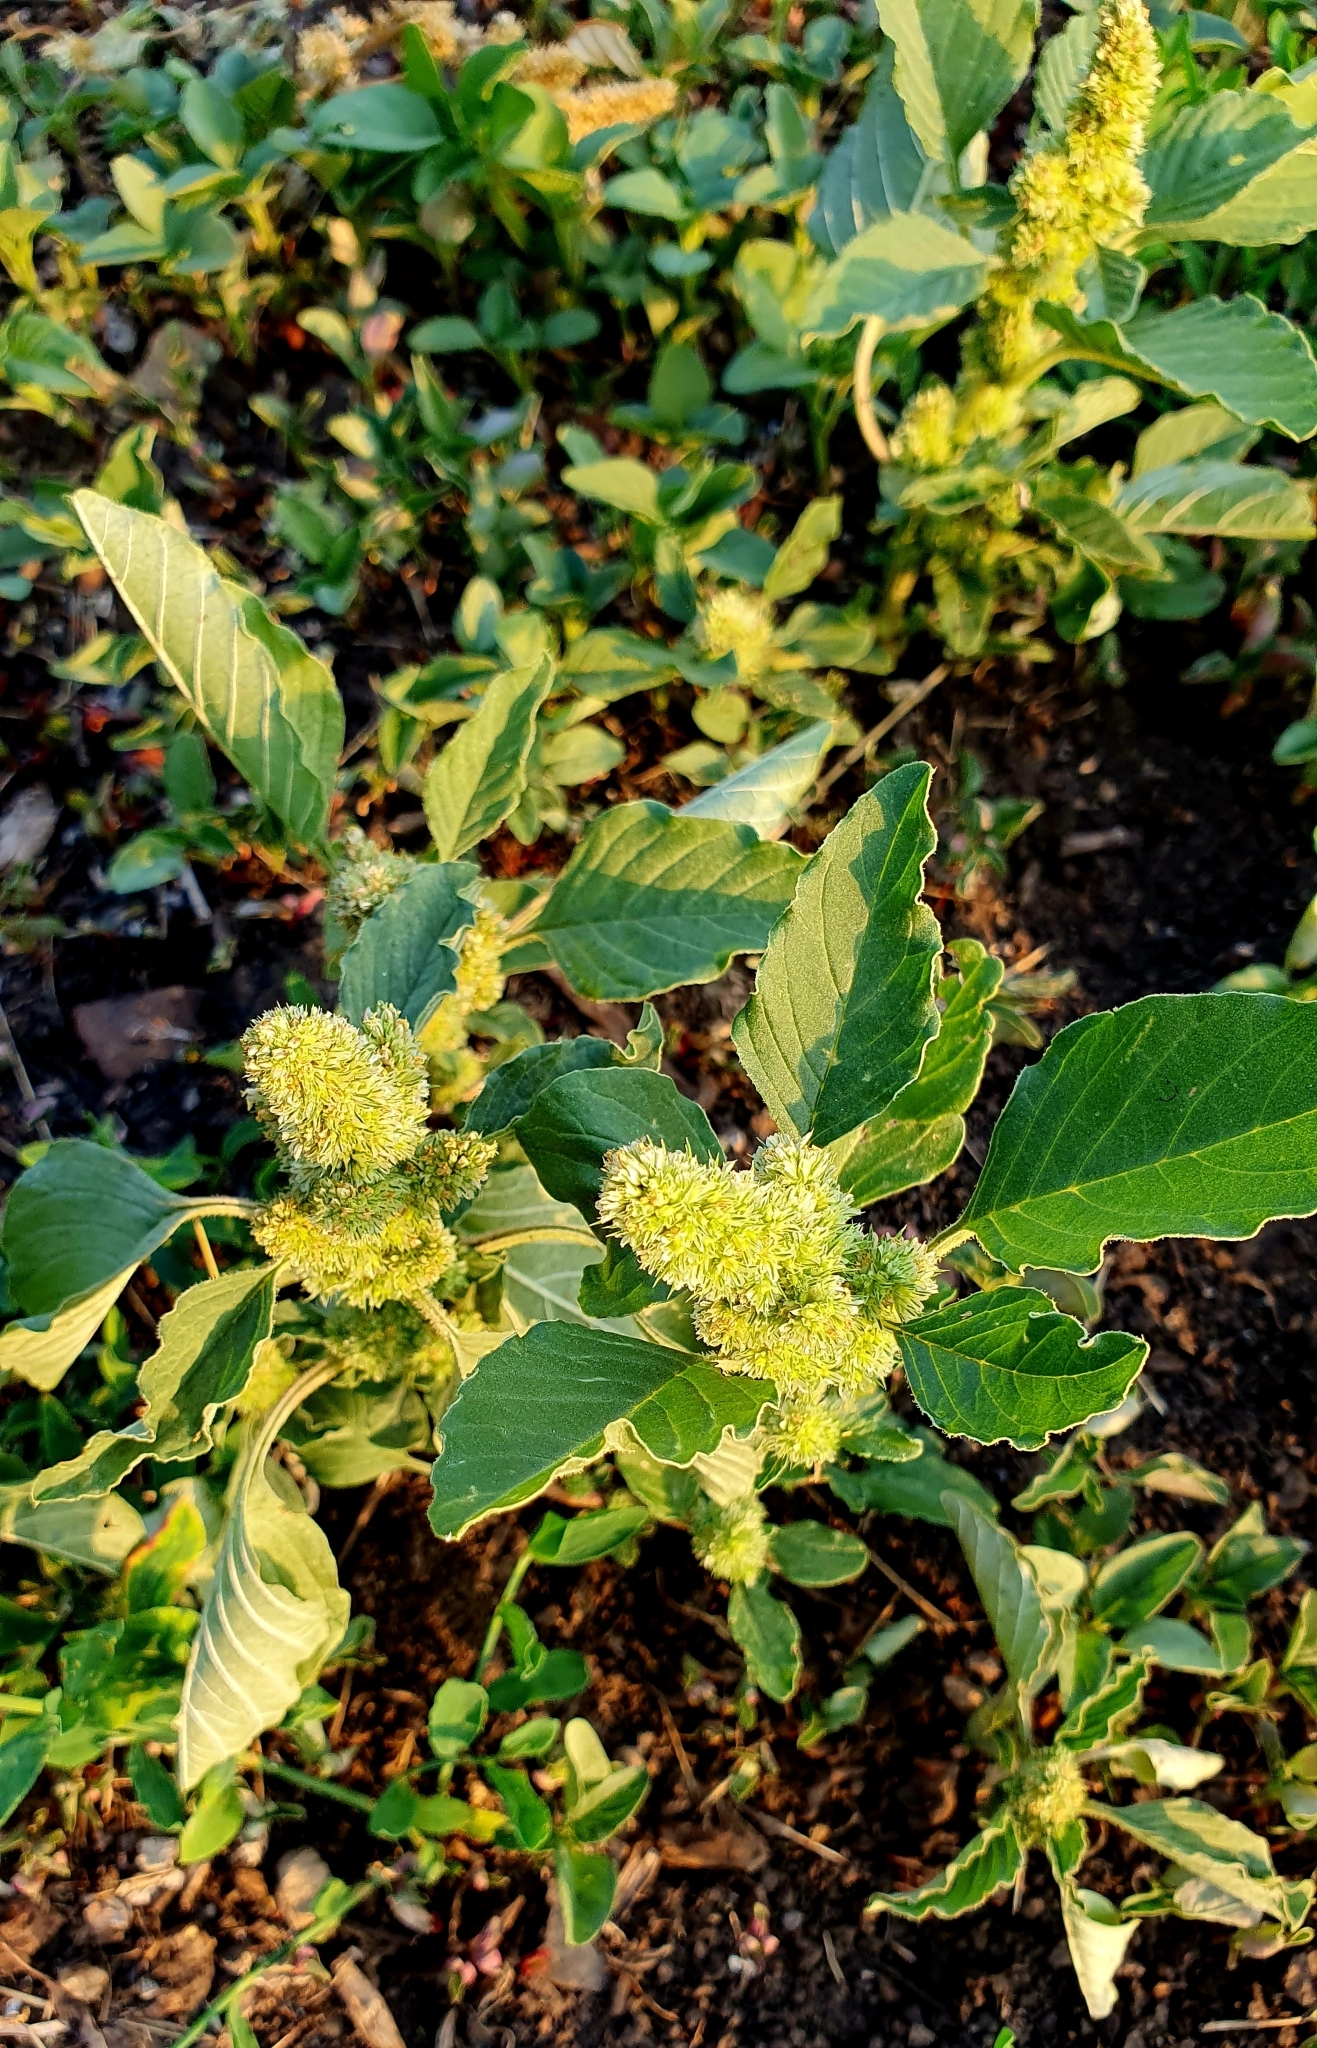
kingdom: Plantae
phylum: Tracheophyta
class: Magnoliopsida
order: Caryophyllales
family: Amaranthaceae
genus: Amaranthus
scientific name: Amaranthus retroflexus
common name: Redroot amaranth
